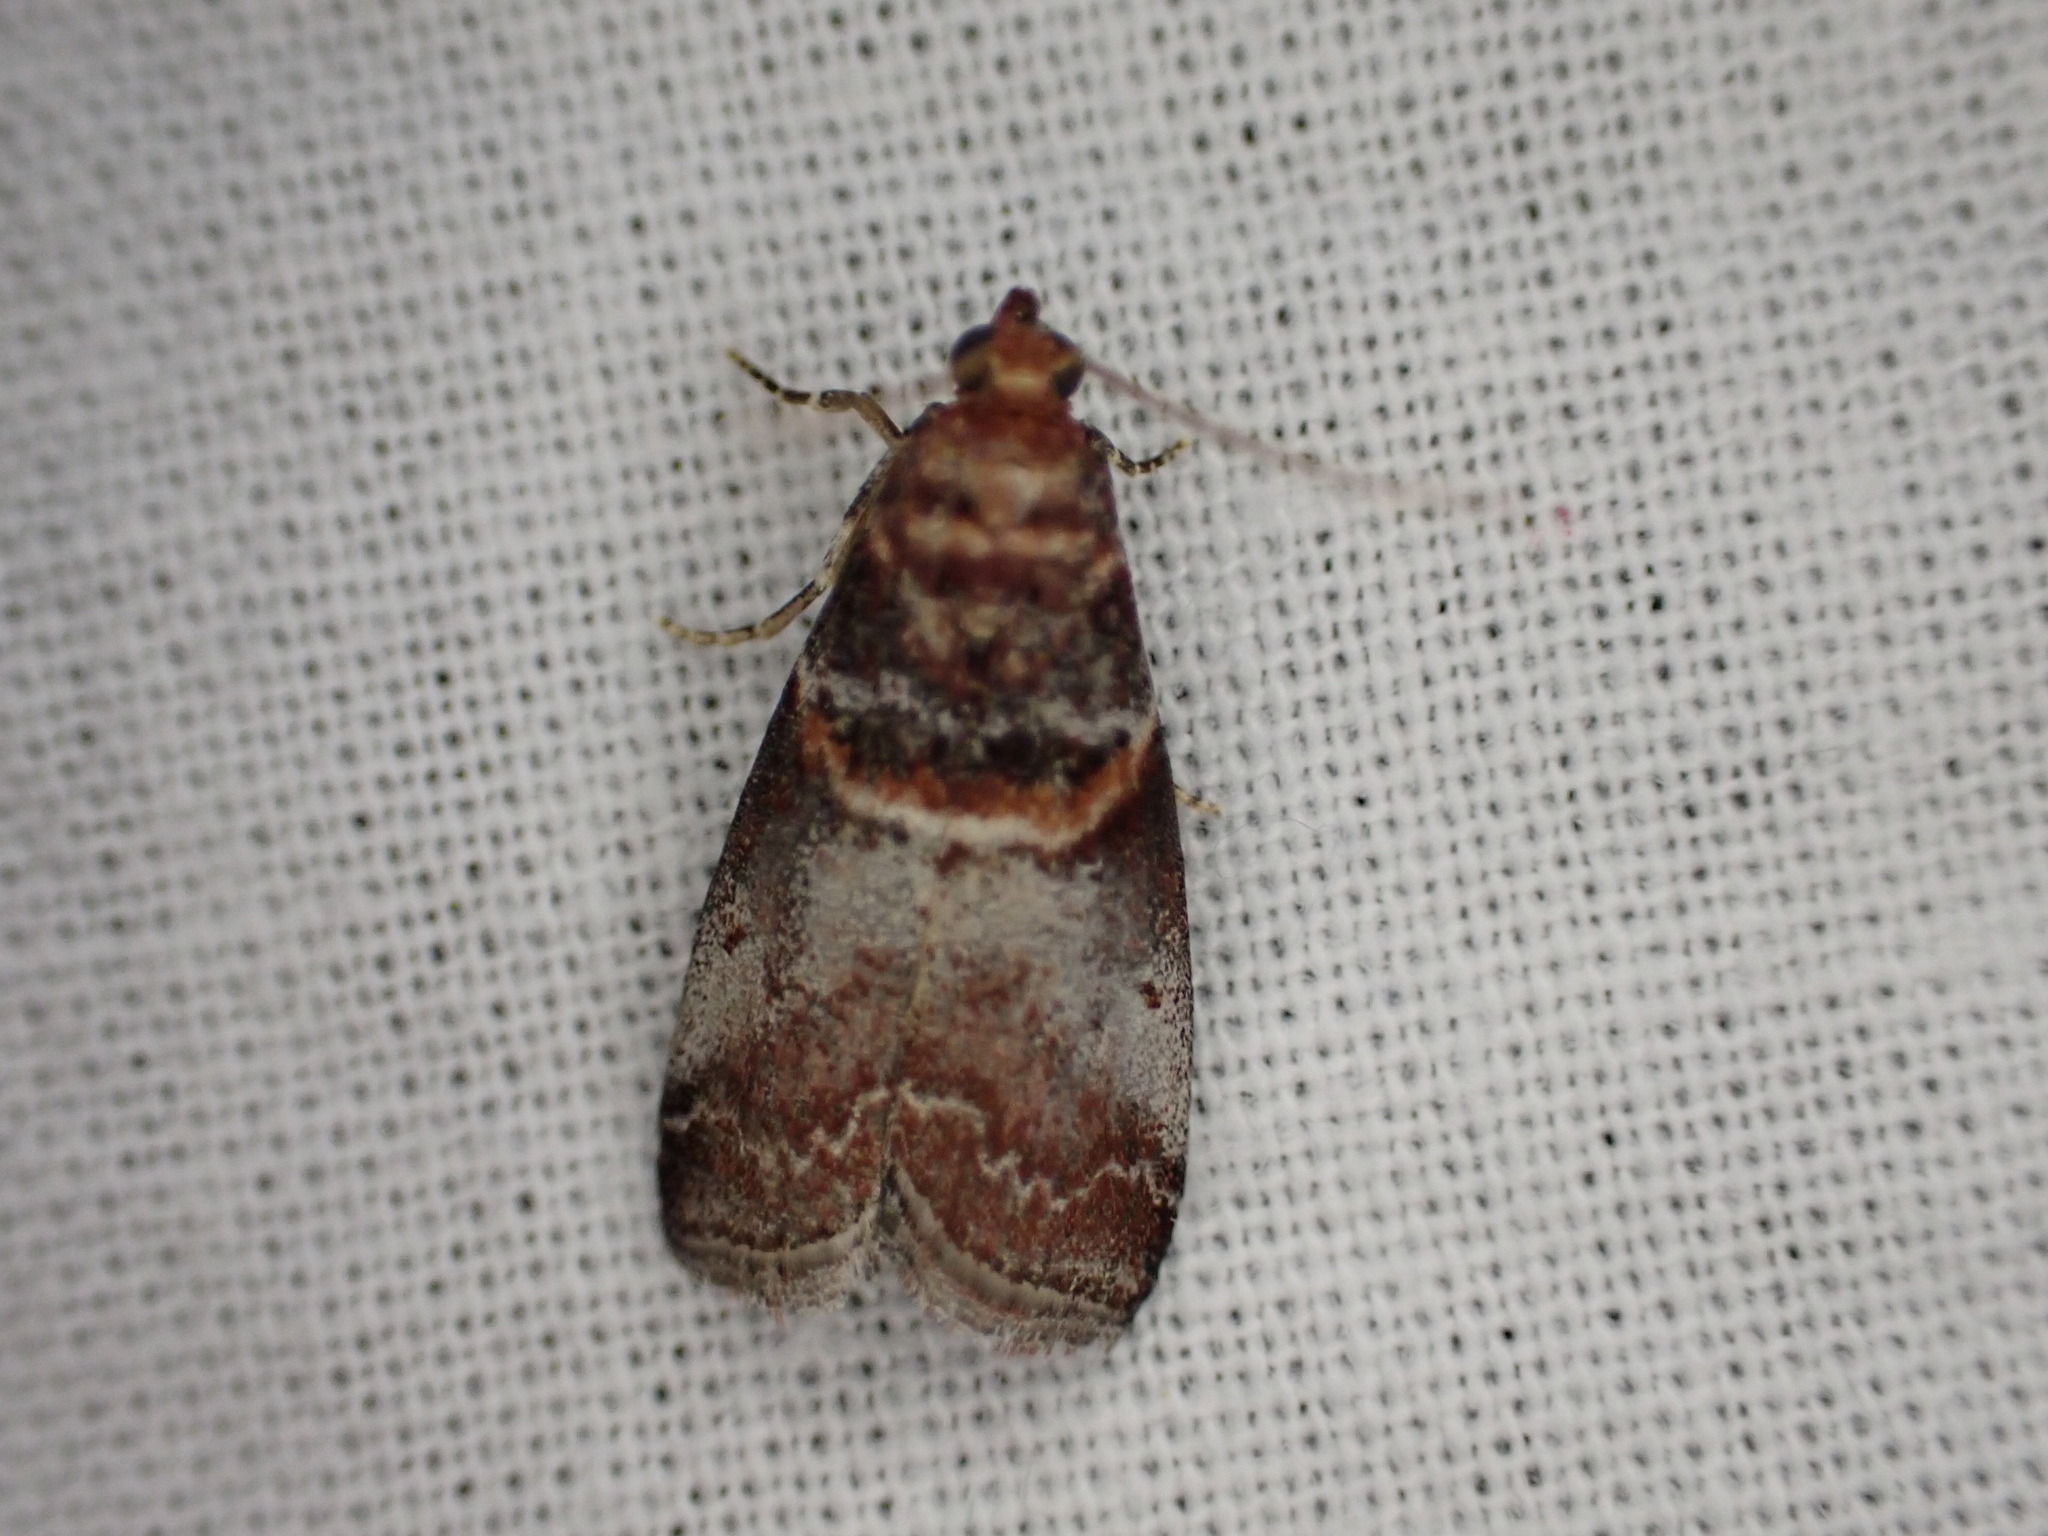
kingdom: Animalia
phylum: Arthropoda
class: Insecta
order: Lepidoptera
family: Pyralidae
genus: Acrobasis
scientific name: Acrobasis advenella
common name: Grey knot-horn
